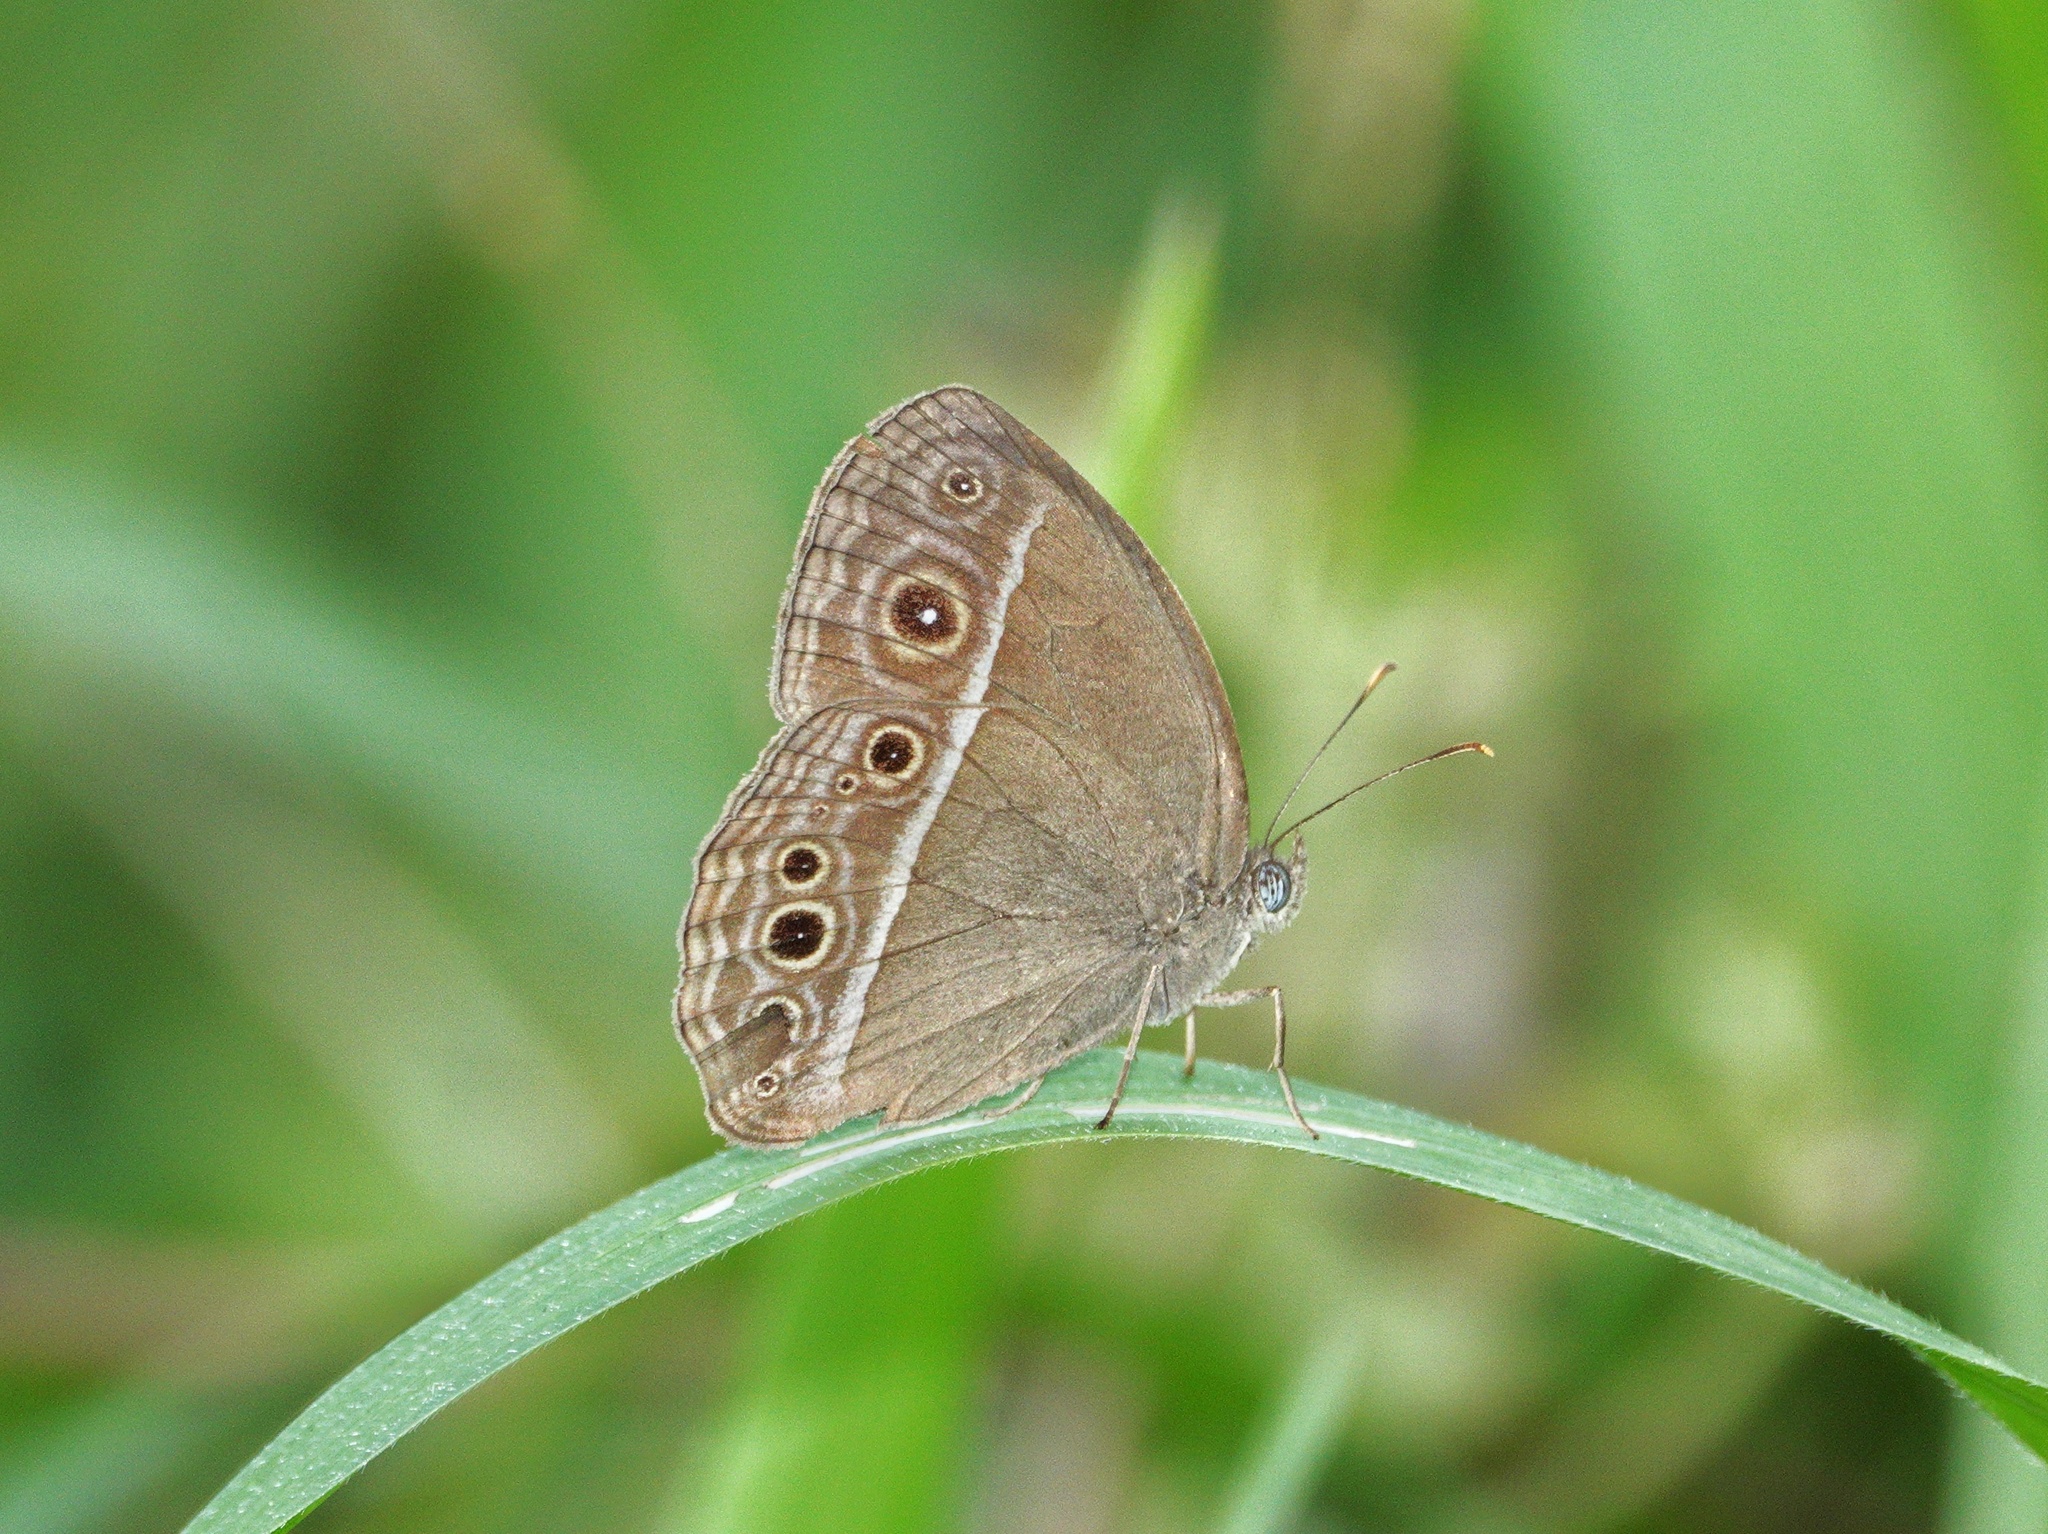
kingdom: Animalia
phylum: Arthropoda
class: Insecta
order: Lepidoptera
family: Nymphalidae
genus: Mycalesis
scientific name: Mycalesis mineus
